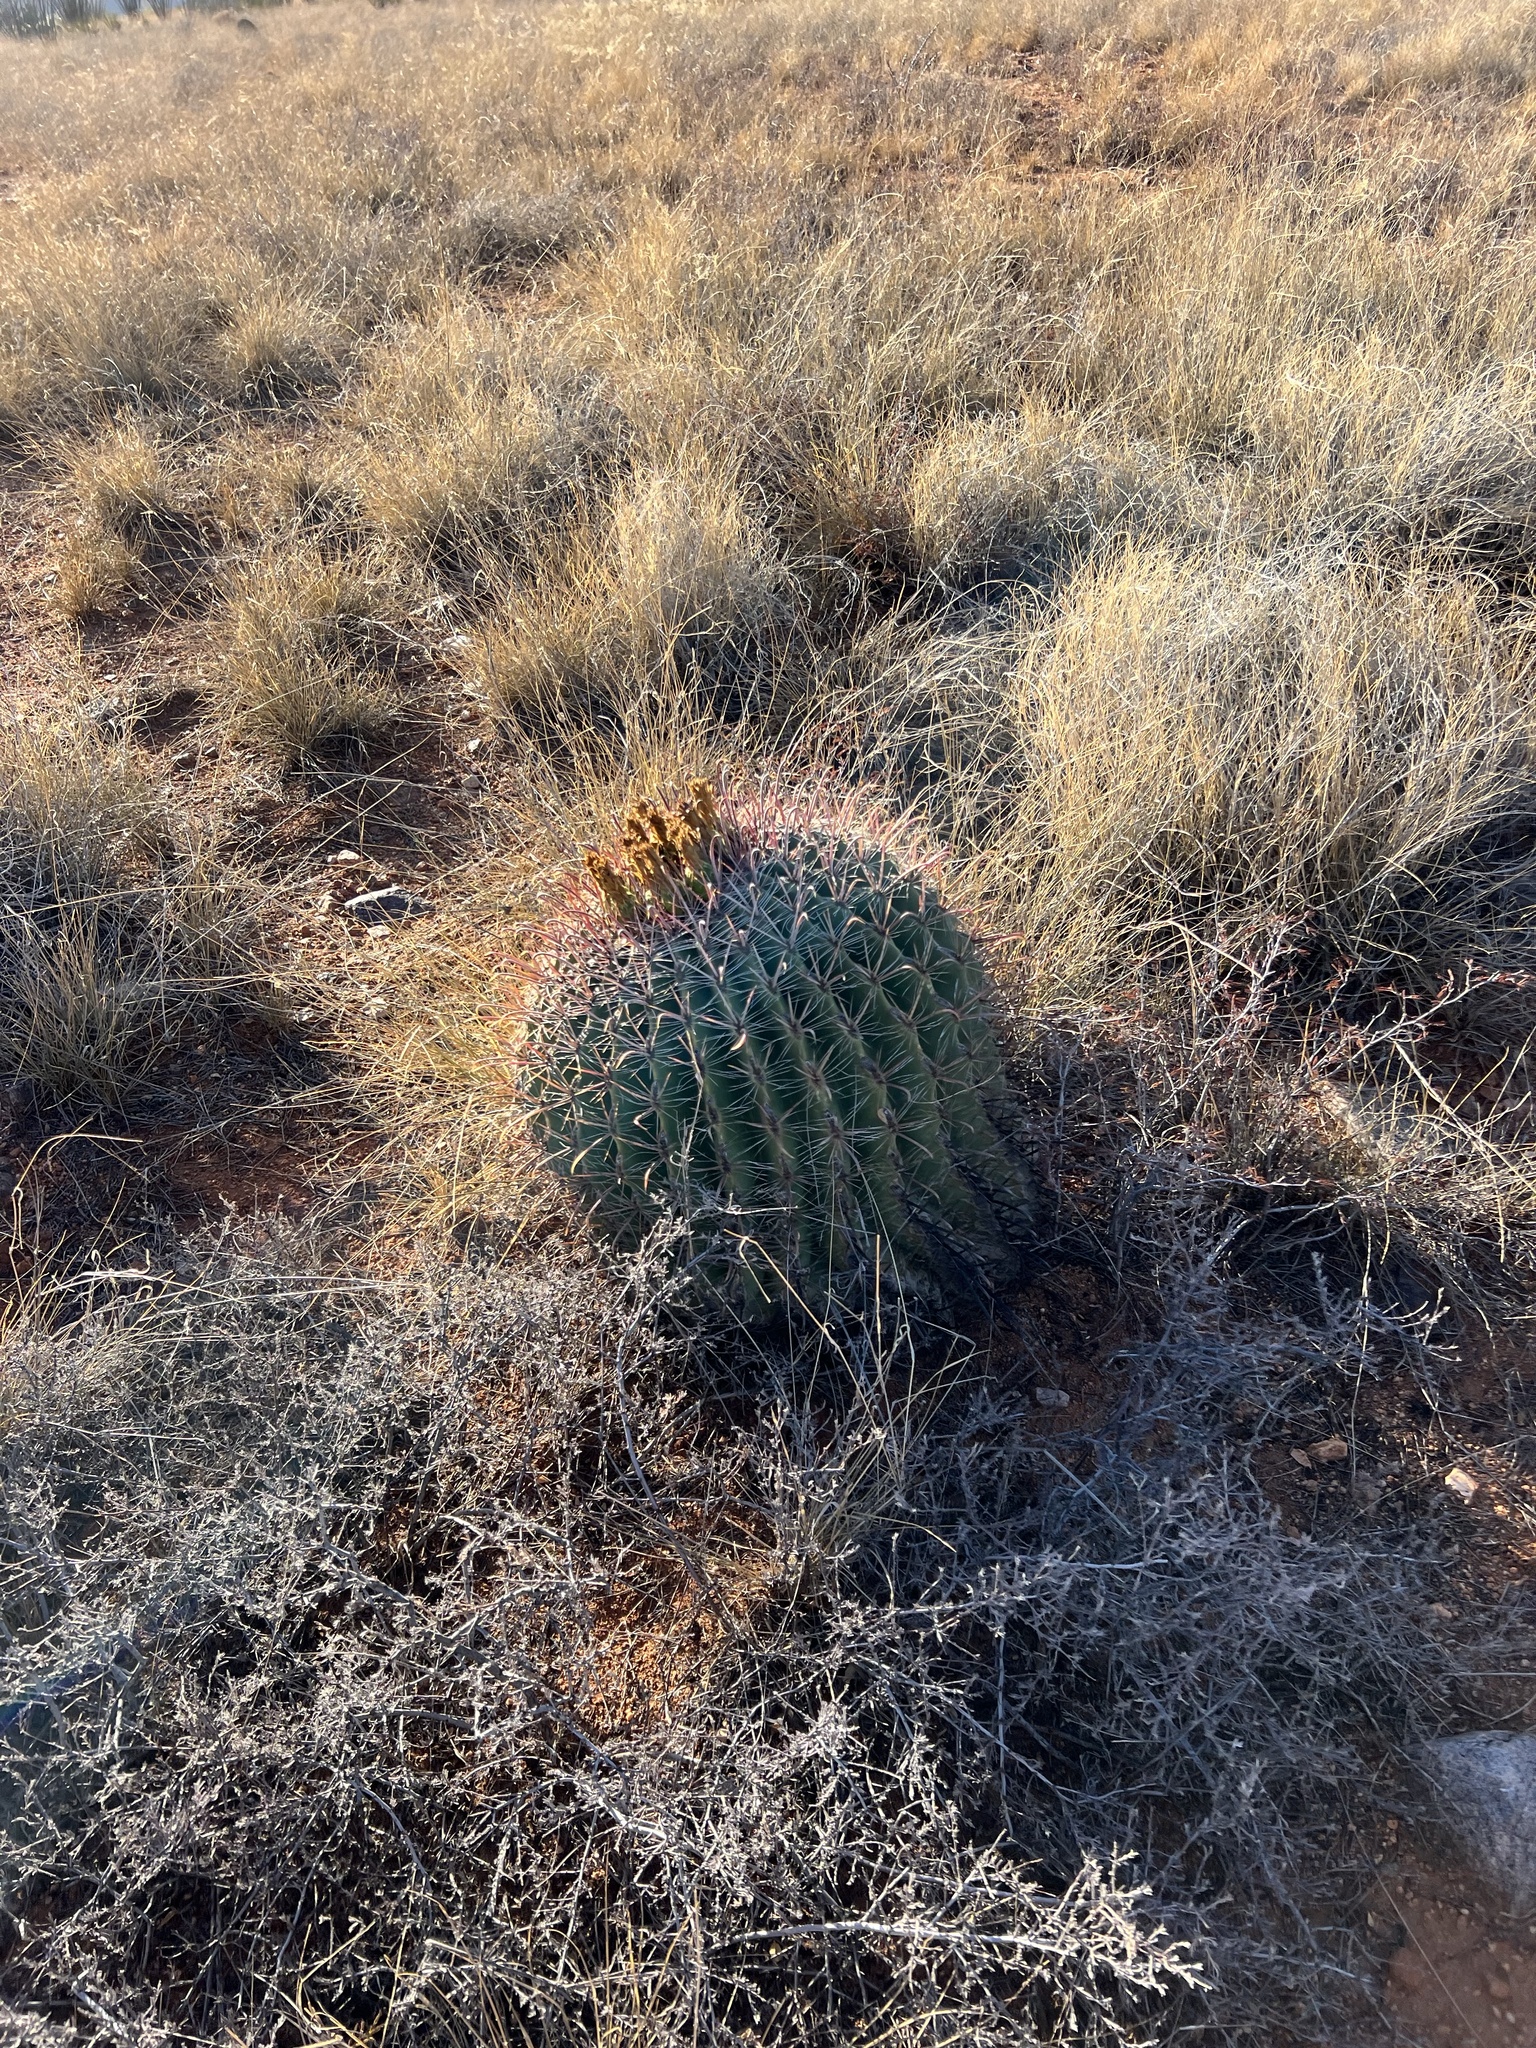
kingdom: Plantae
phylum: Tracheophyta
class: Magnoliopsida
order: Caryophyllales
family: Cactaceae
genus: Ferocactus
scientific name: Ferocactus wislizeni
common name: Candy barrel cactus
